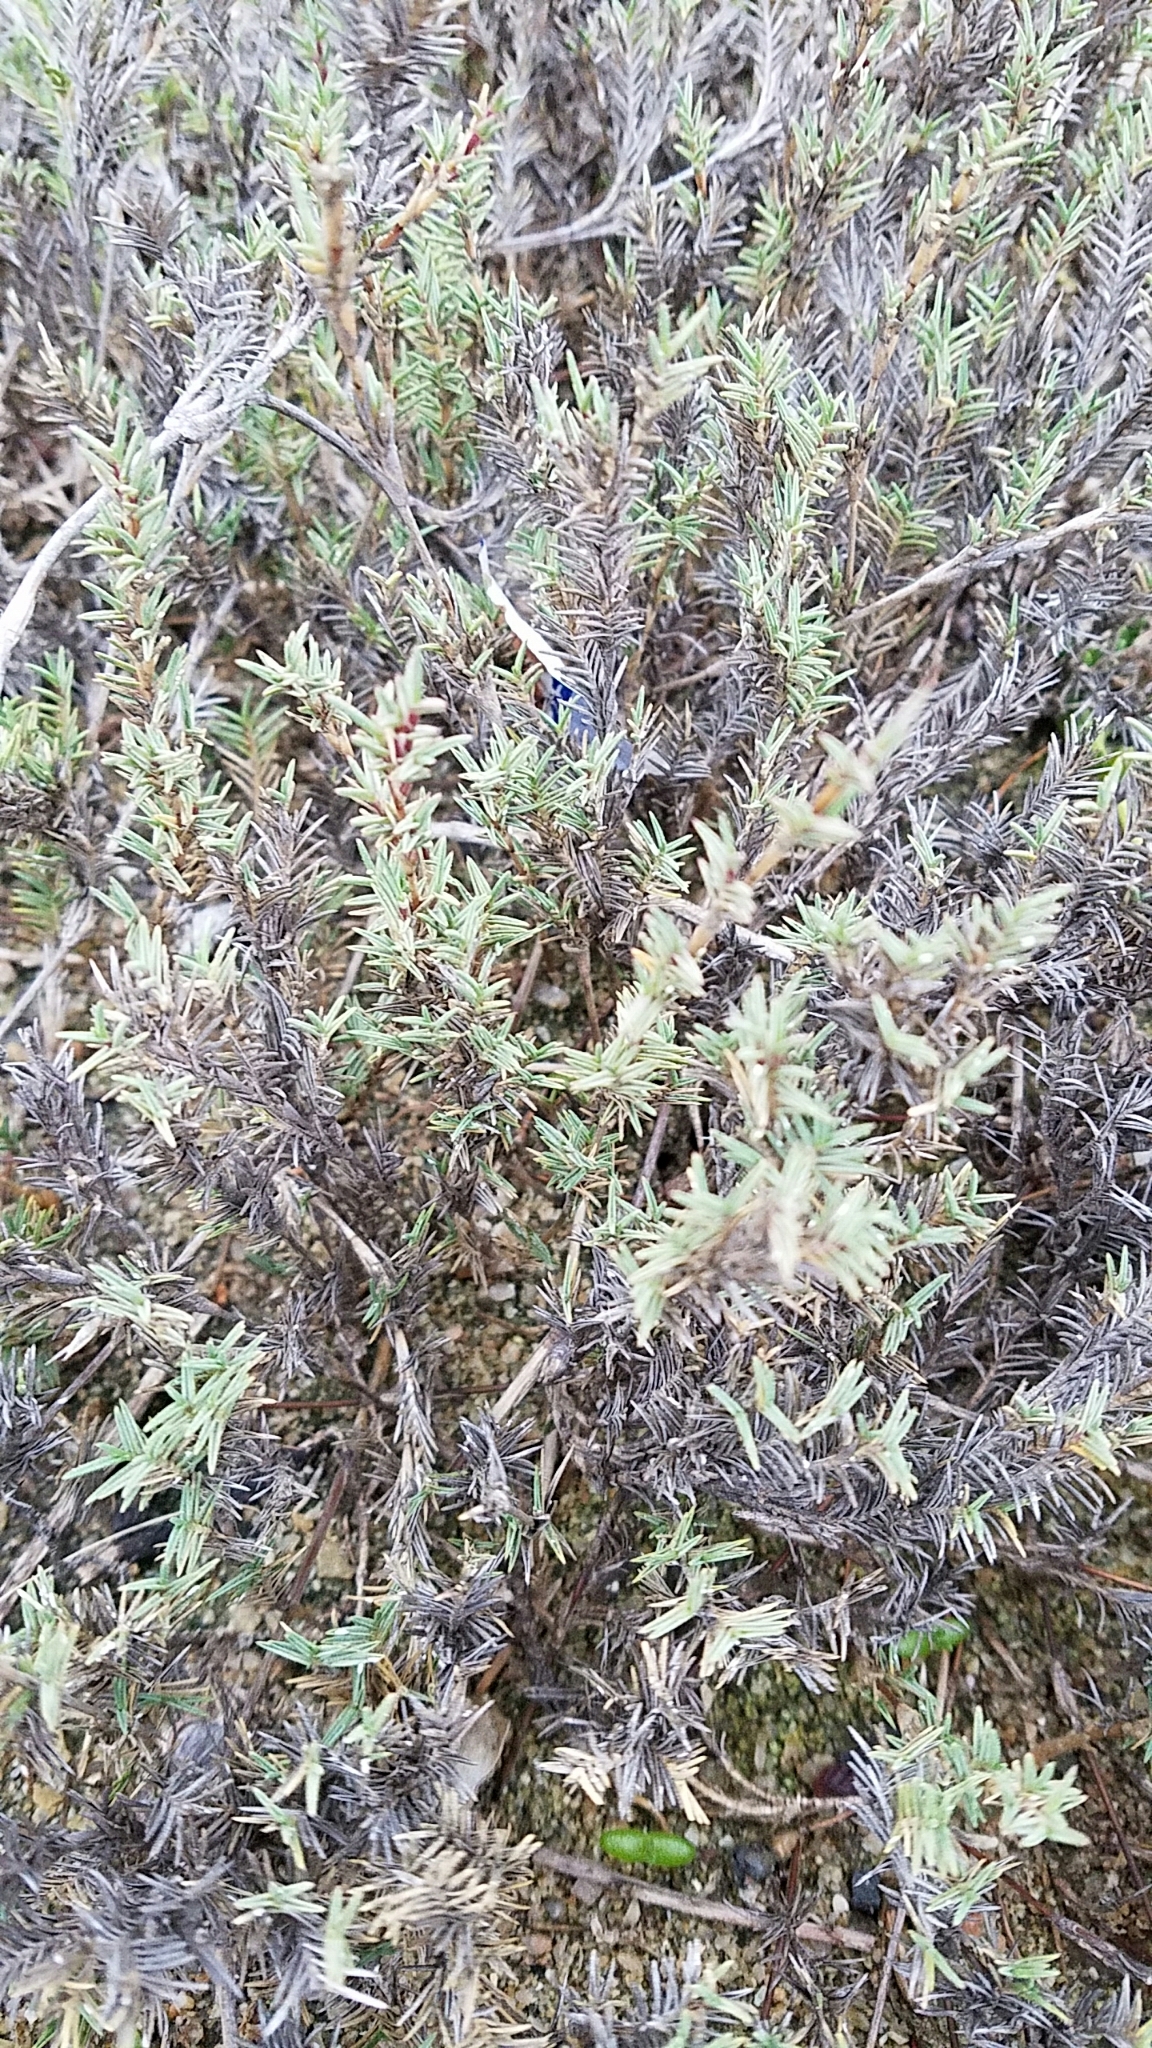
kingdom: Plantae
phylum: Tracheophyta
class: Liliopsida
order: Poales
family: Poaceae
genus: Distichlis
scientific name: Distichlis littoralis
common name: Shore grass
